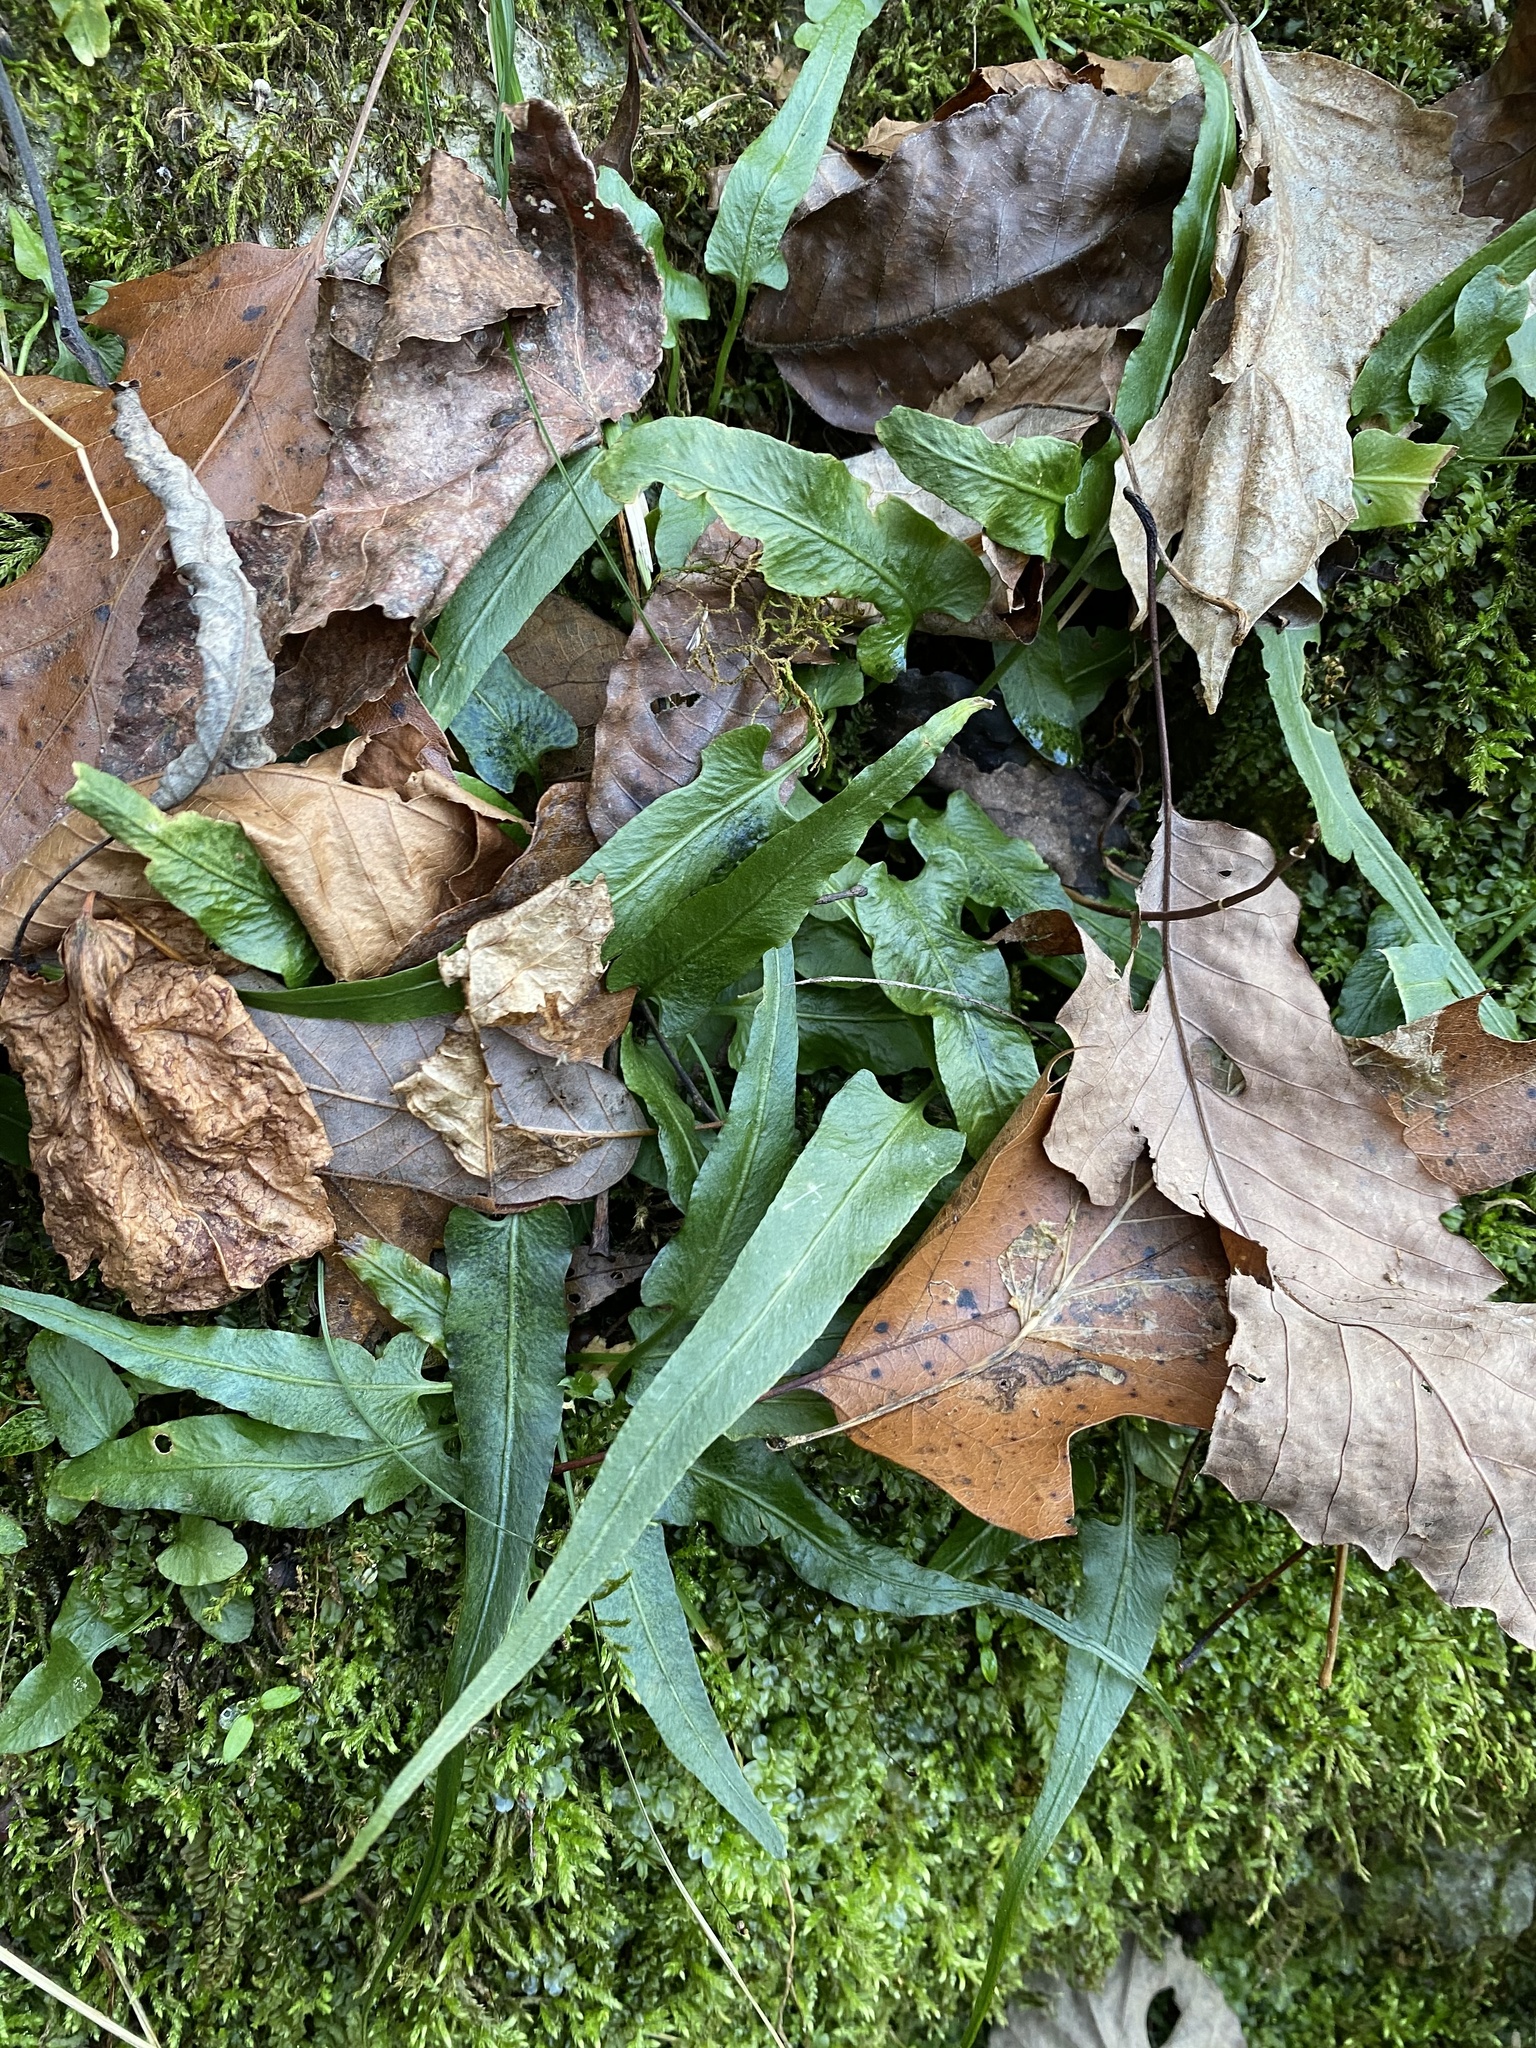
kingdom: Plantae
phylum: Tracheophyta
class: Polypodiopsida
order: Polypodiales
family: Aspleniaceae
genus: Asplenium
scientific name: Asplenium rhizophyllum
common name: Walking fern
